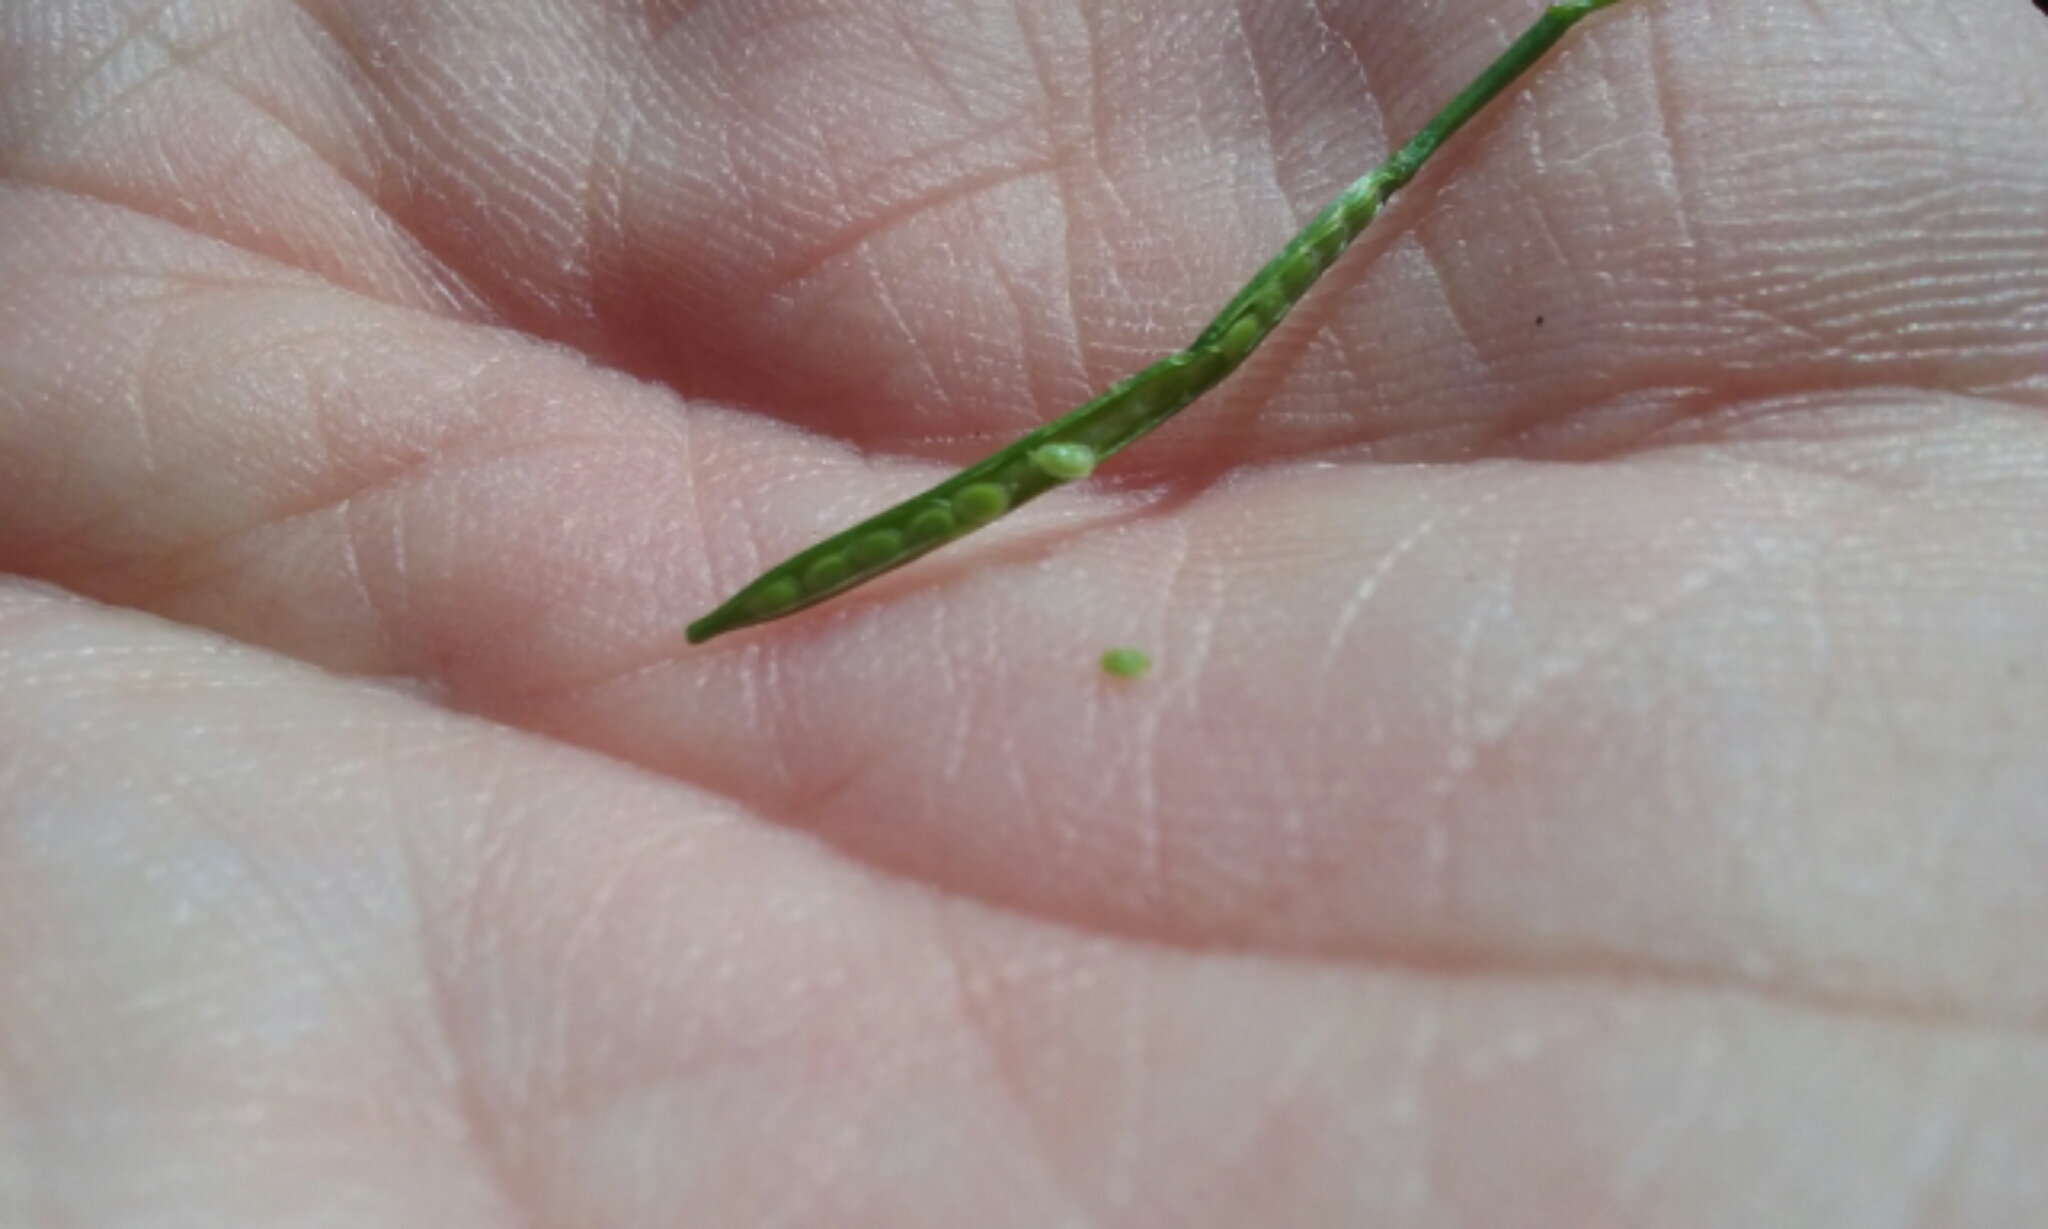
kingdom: Plantae
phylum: Tracheophyta
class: Magnoliopsida
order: Brassicales
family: Brassicaceae
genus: Cardamine
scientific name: Cardamine hirsuta
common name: Hairy bittercress
